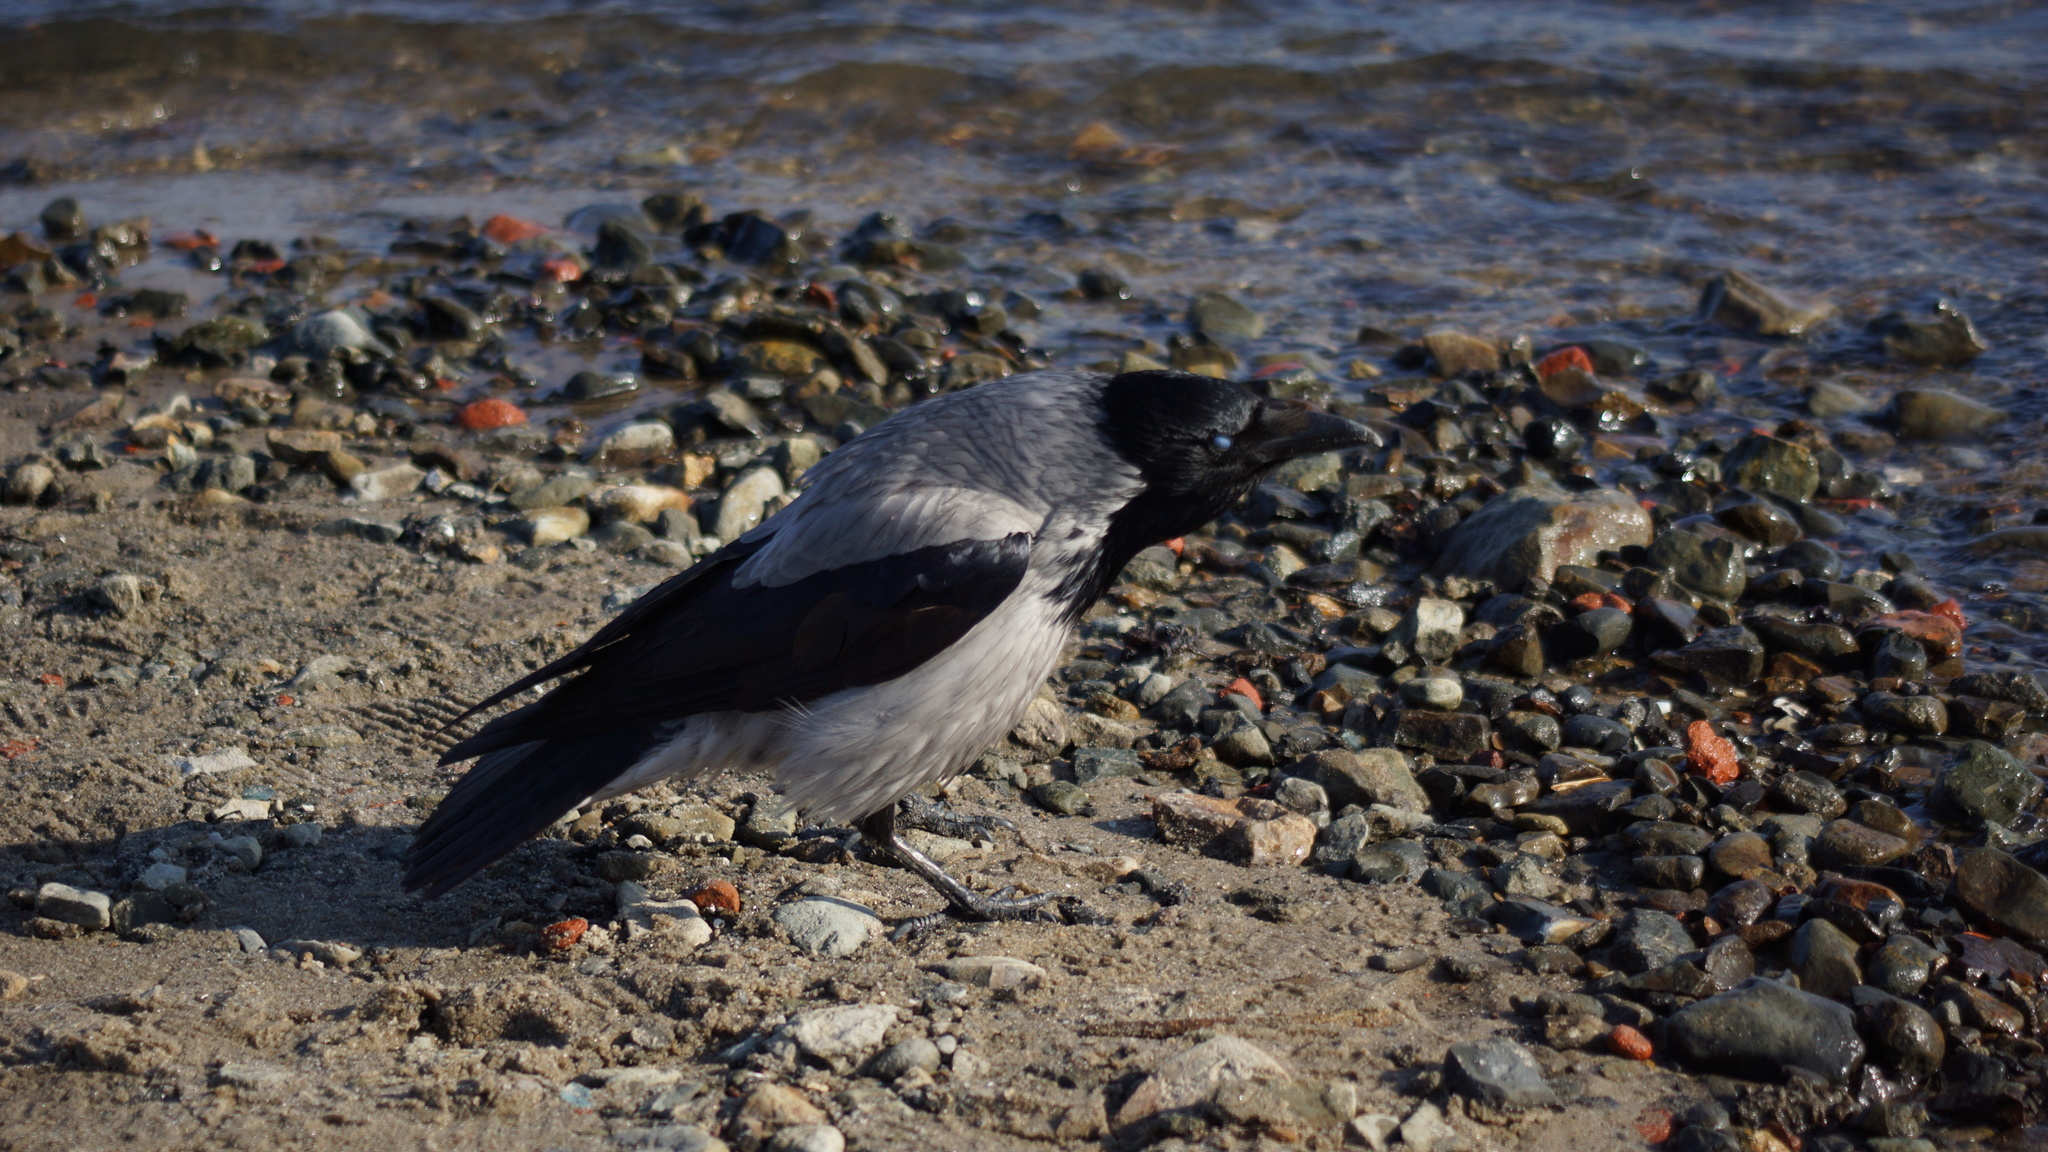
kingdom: Animalia
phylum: Chordata
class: Aves
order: Passeriformes
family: Corvidae
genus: Corvus
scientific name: Corvus cornix
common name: Hooded crow
